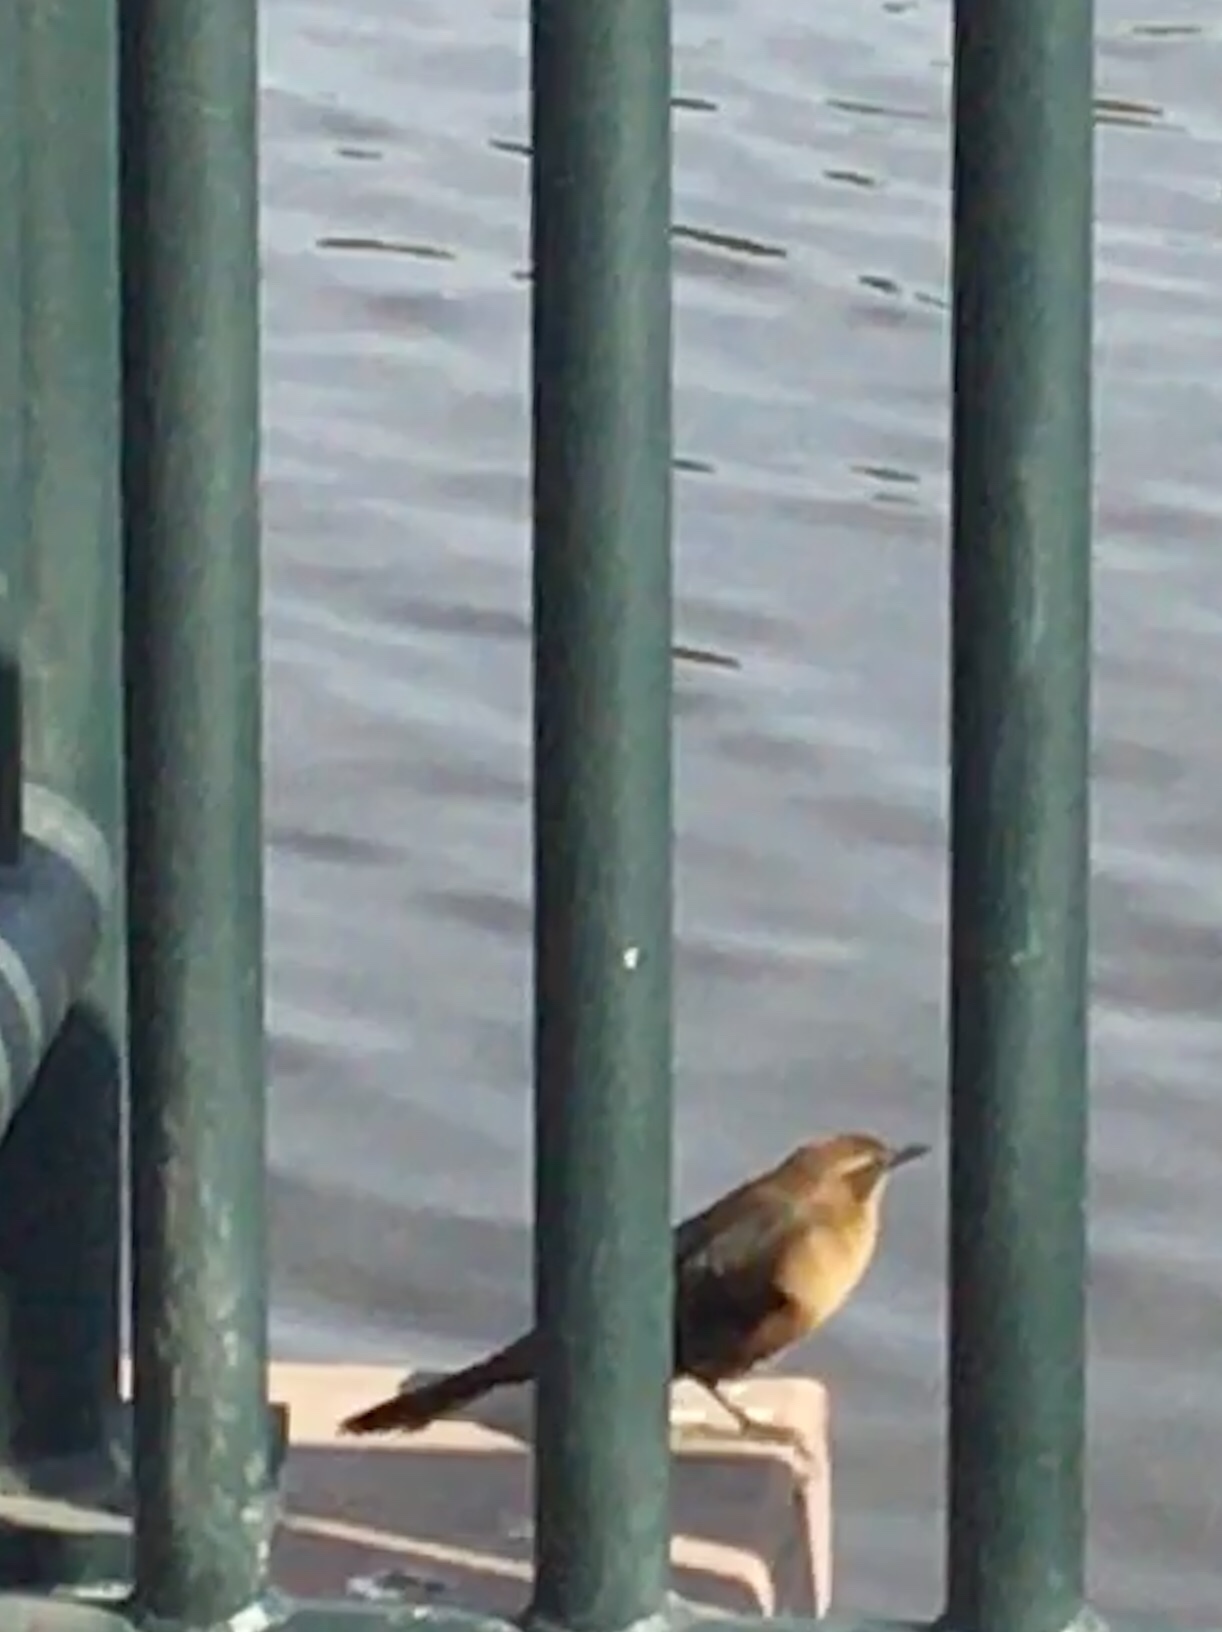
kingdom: Animalia
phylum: Chordata
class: Aves
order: Passeriformes
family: Icteridae
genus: Quiscalus
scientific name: Quiscalus mexicanus
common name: Great-tailed grackle
